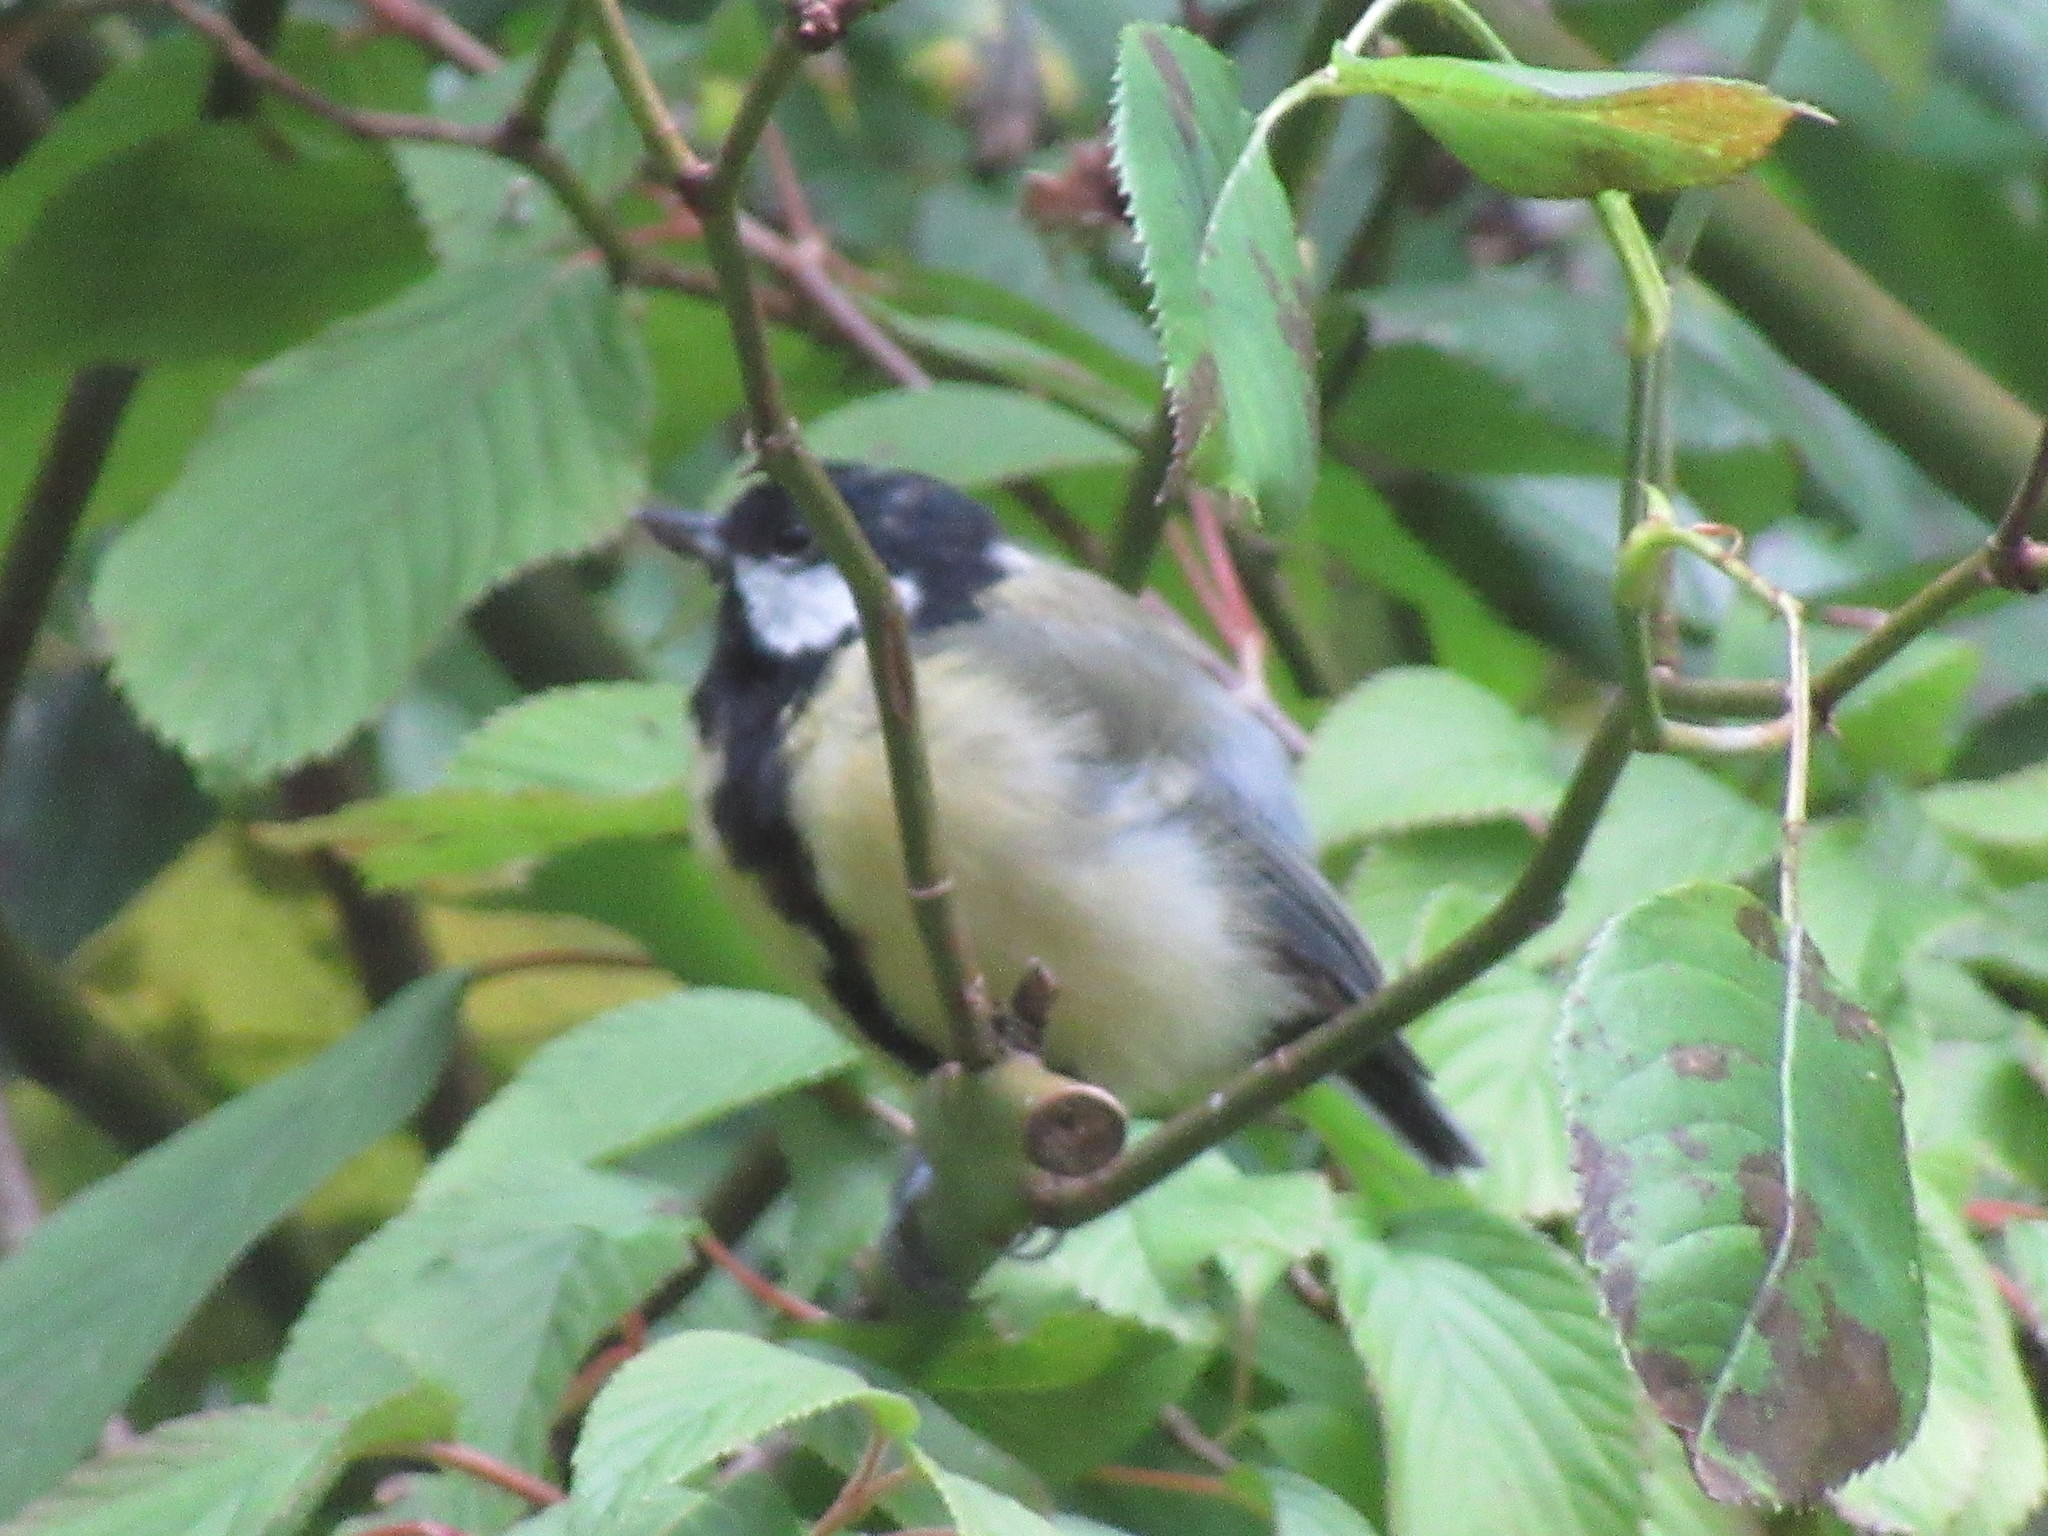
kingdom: Animalia
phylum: Chordata
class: Aves
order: Passeriformes
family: Paridae
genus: Parus
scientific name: Parus major
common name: Great tit
